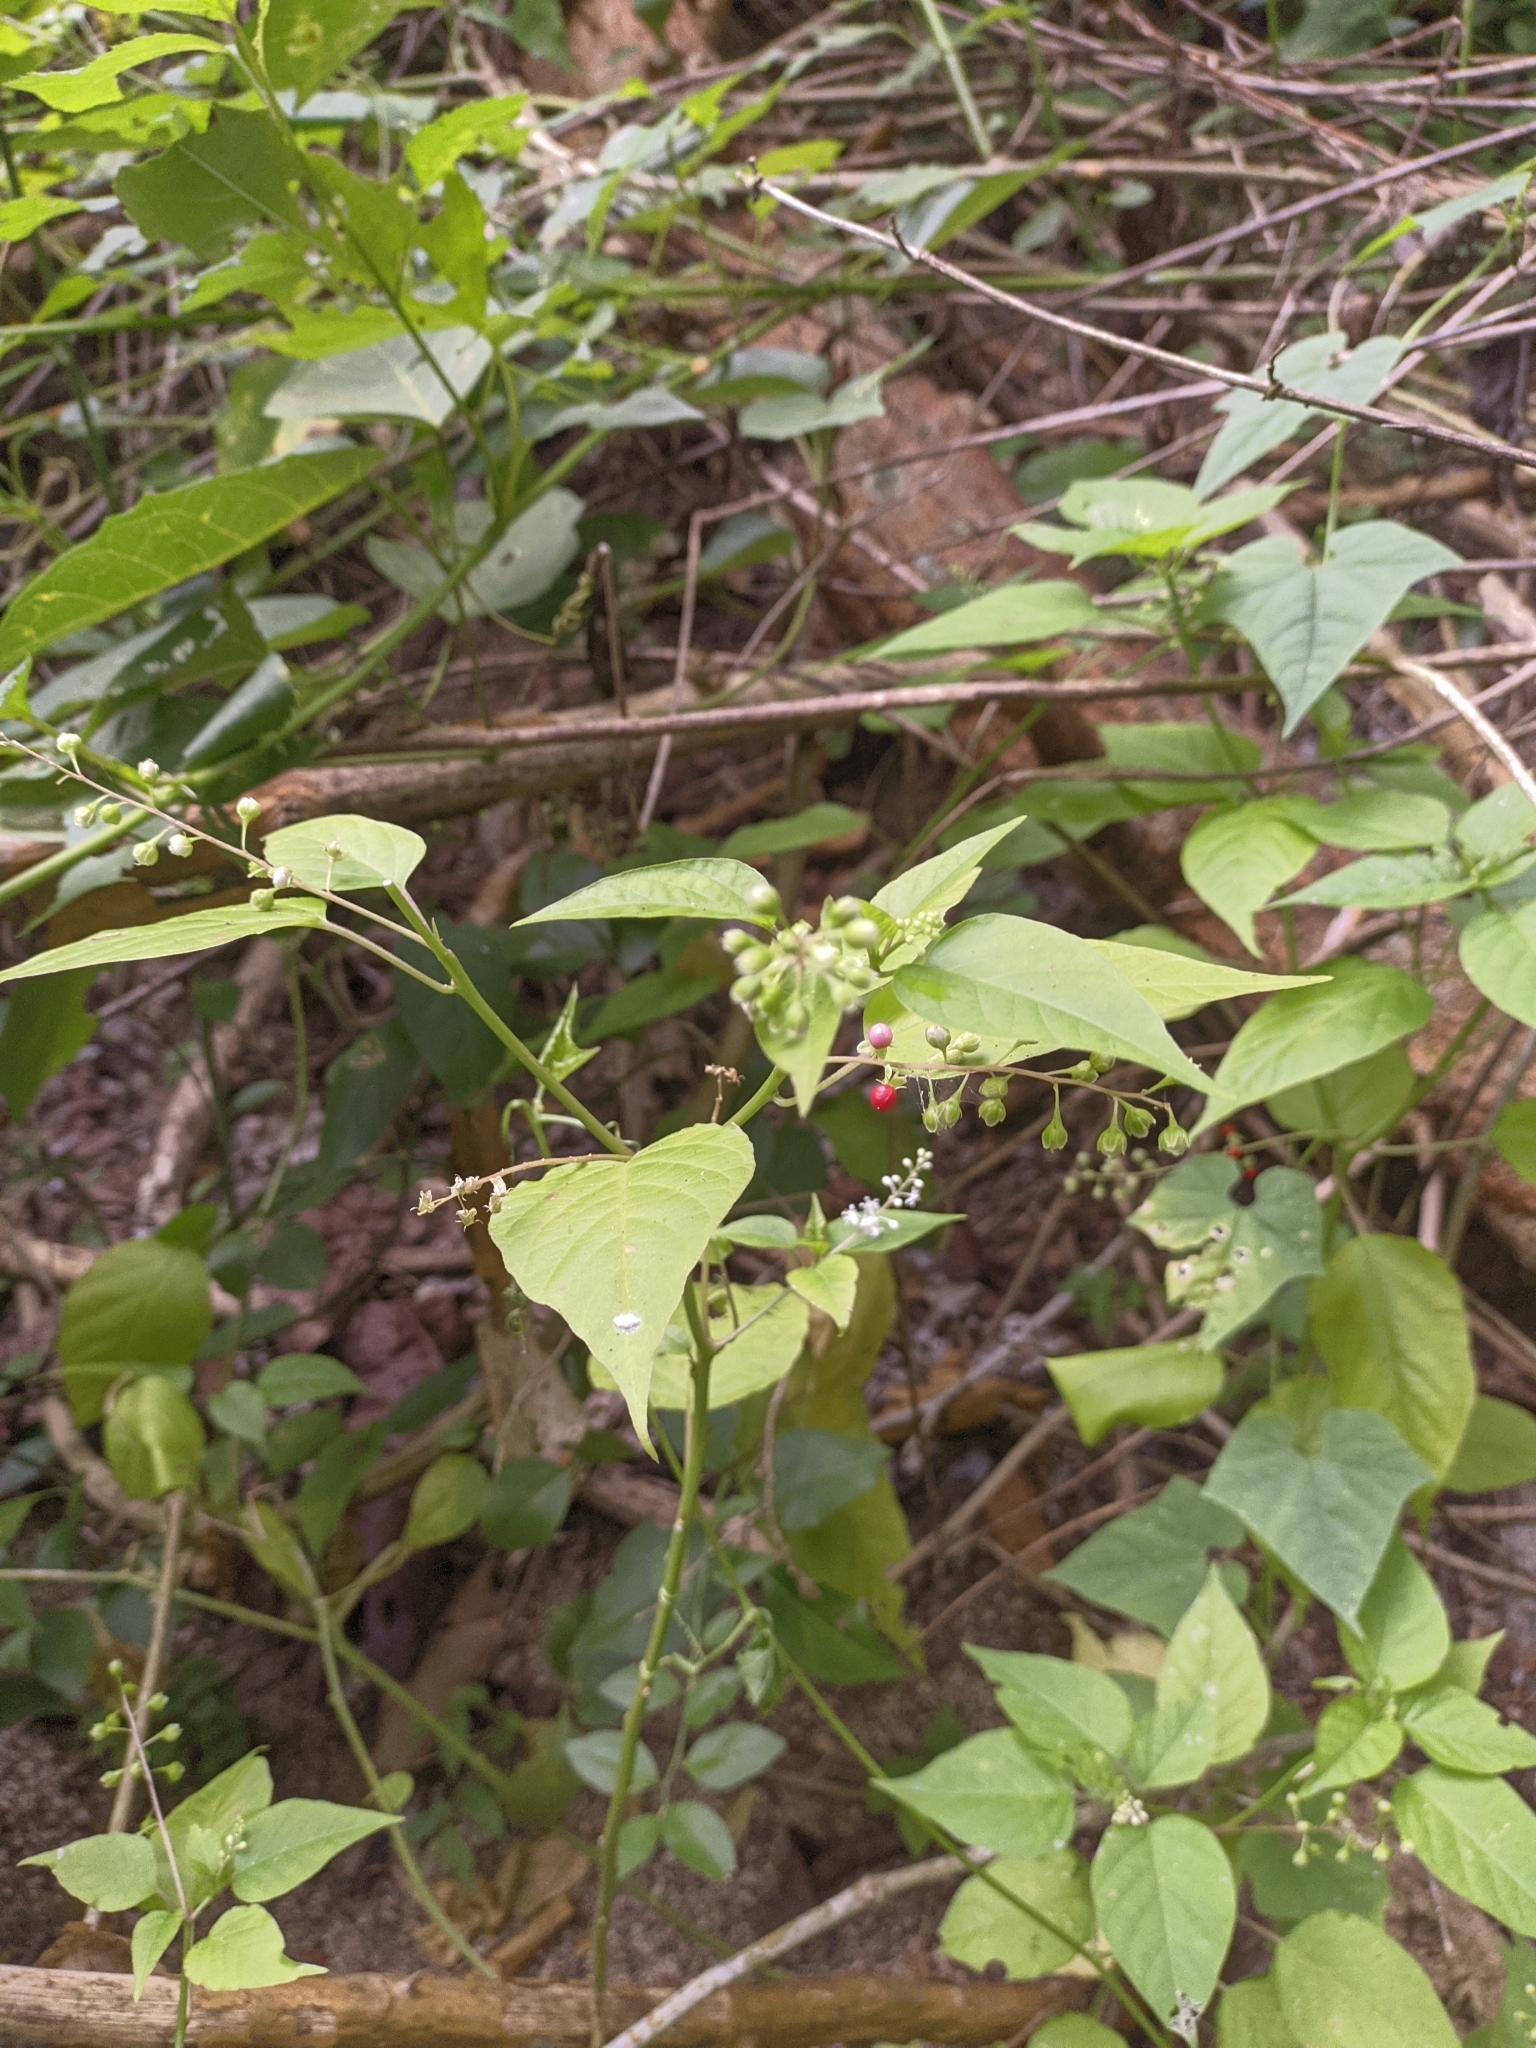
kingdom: Plantae
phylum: Tracheophyta
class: Magnoliopsida
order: Caryophyllales
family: Phytolaccaceae
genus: Rivina
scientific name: Rivina humilis
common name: Rougeplant
